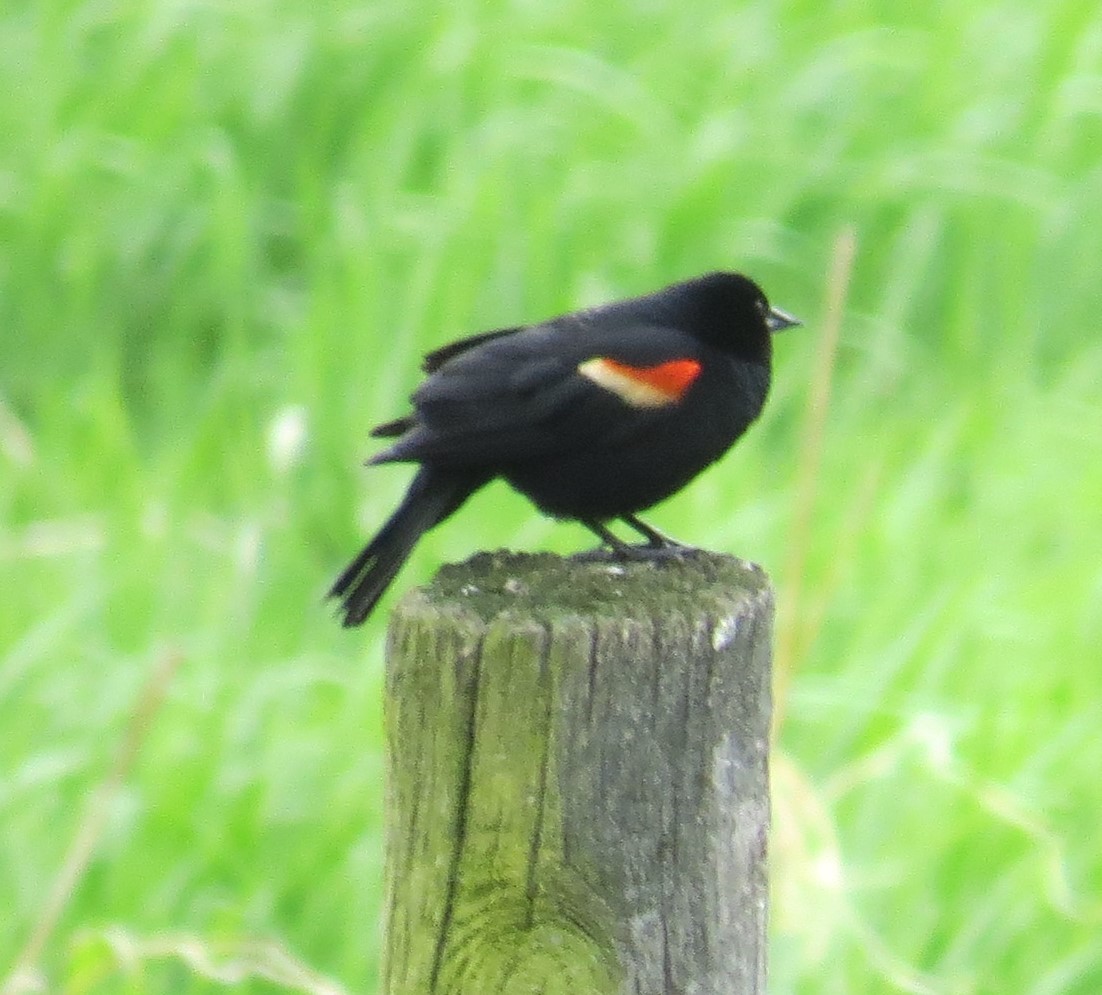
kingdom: Animalia
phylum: Chordata
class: Aves
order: Passeriformes
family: Icteridae
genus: Agelaius
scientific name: Agelaius phoeniceus
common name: Red-winged blackbird
